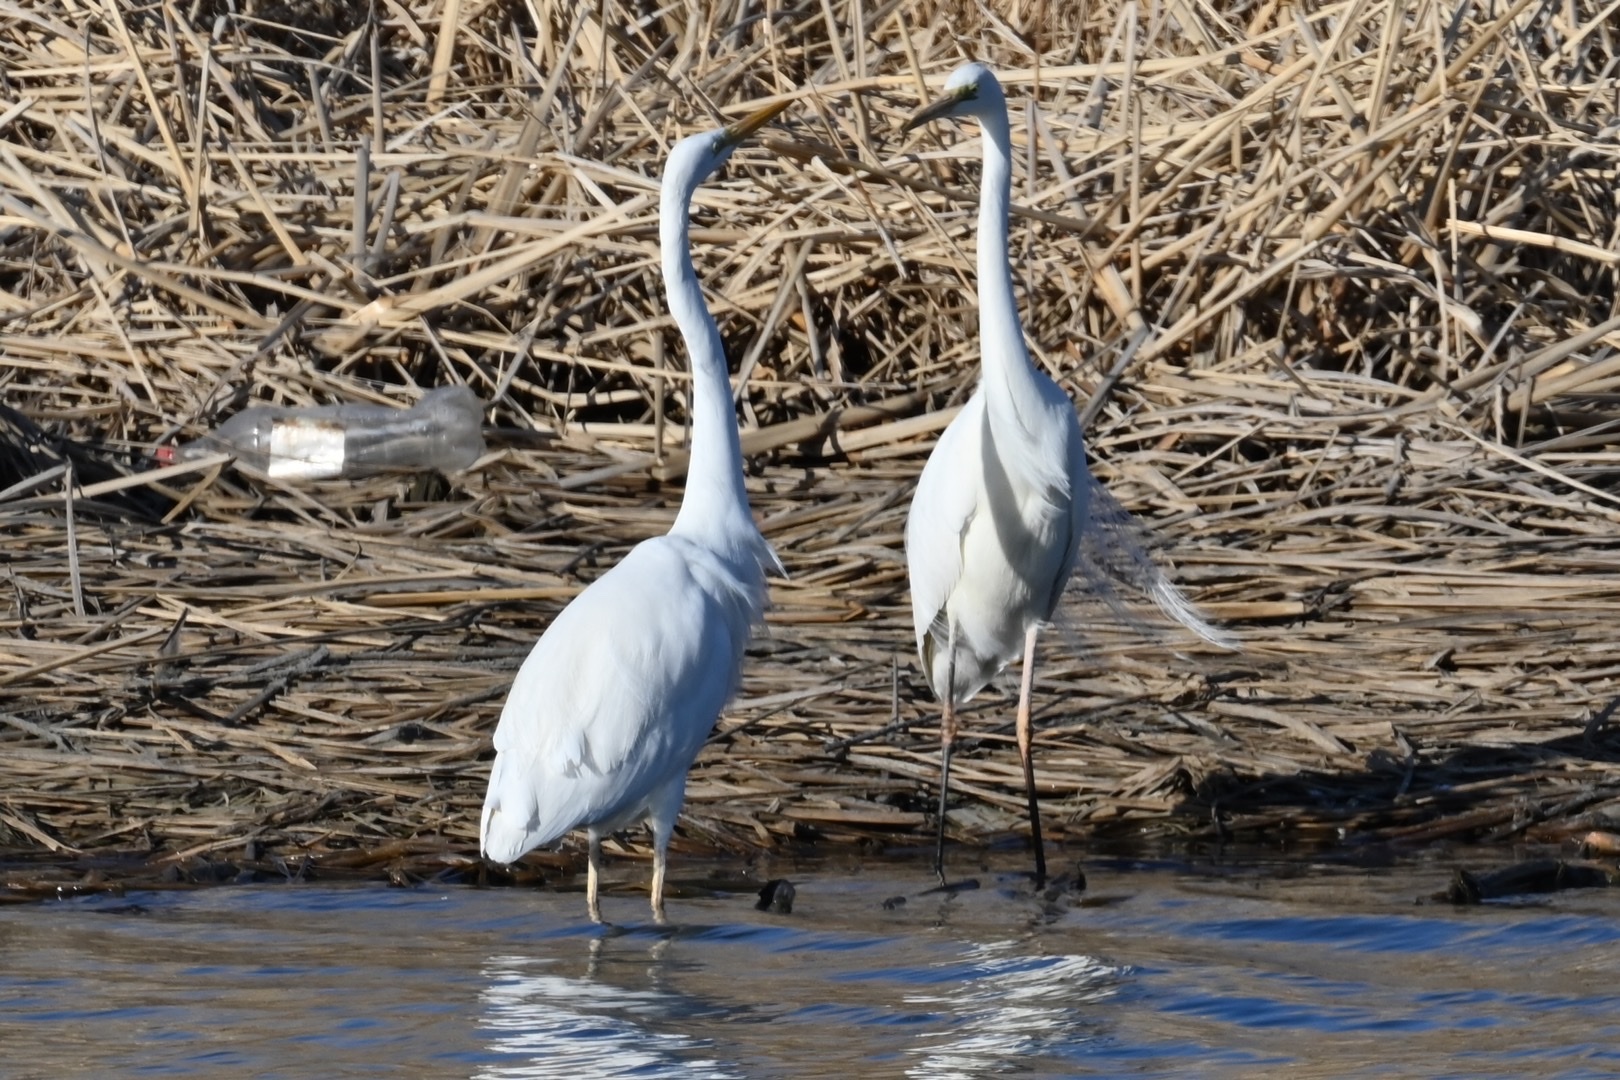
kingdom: Animalia
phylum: Chordata
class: Aves
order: Pelecaniformes
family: Ardeidae
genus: Ardea
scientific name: Ardea alba
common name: Great egret
